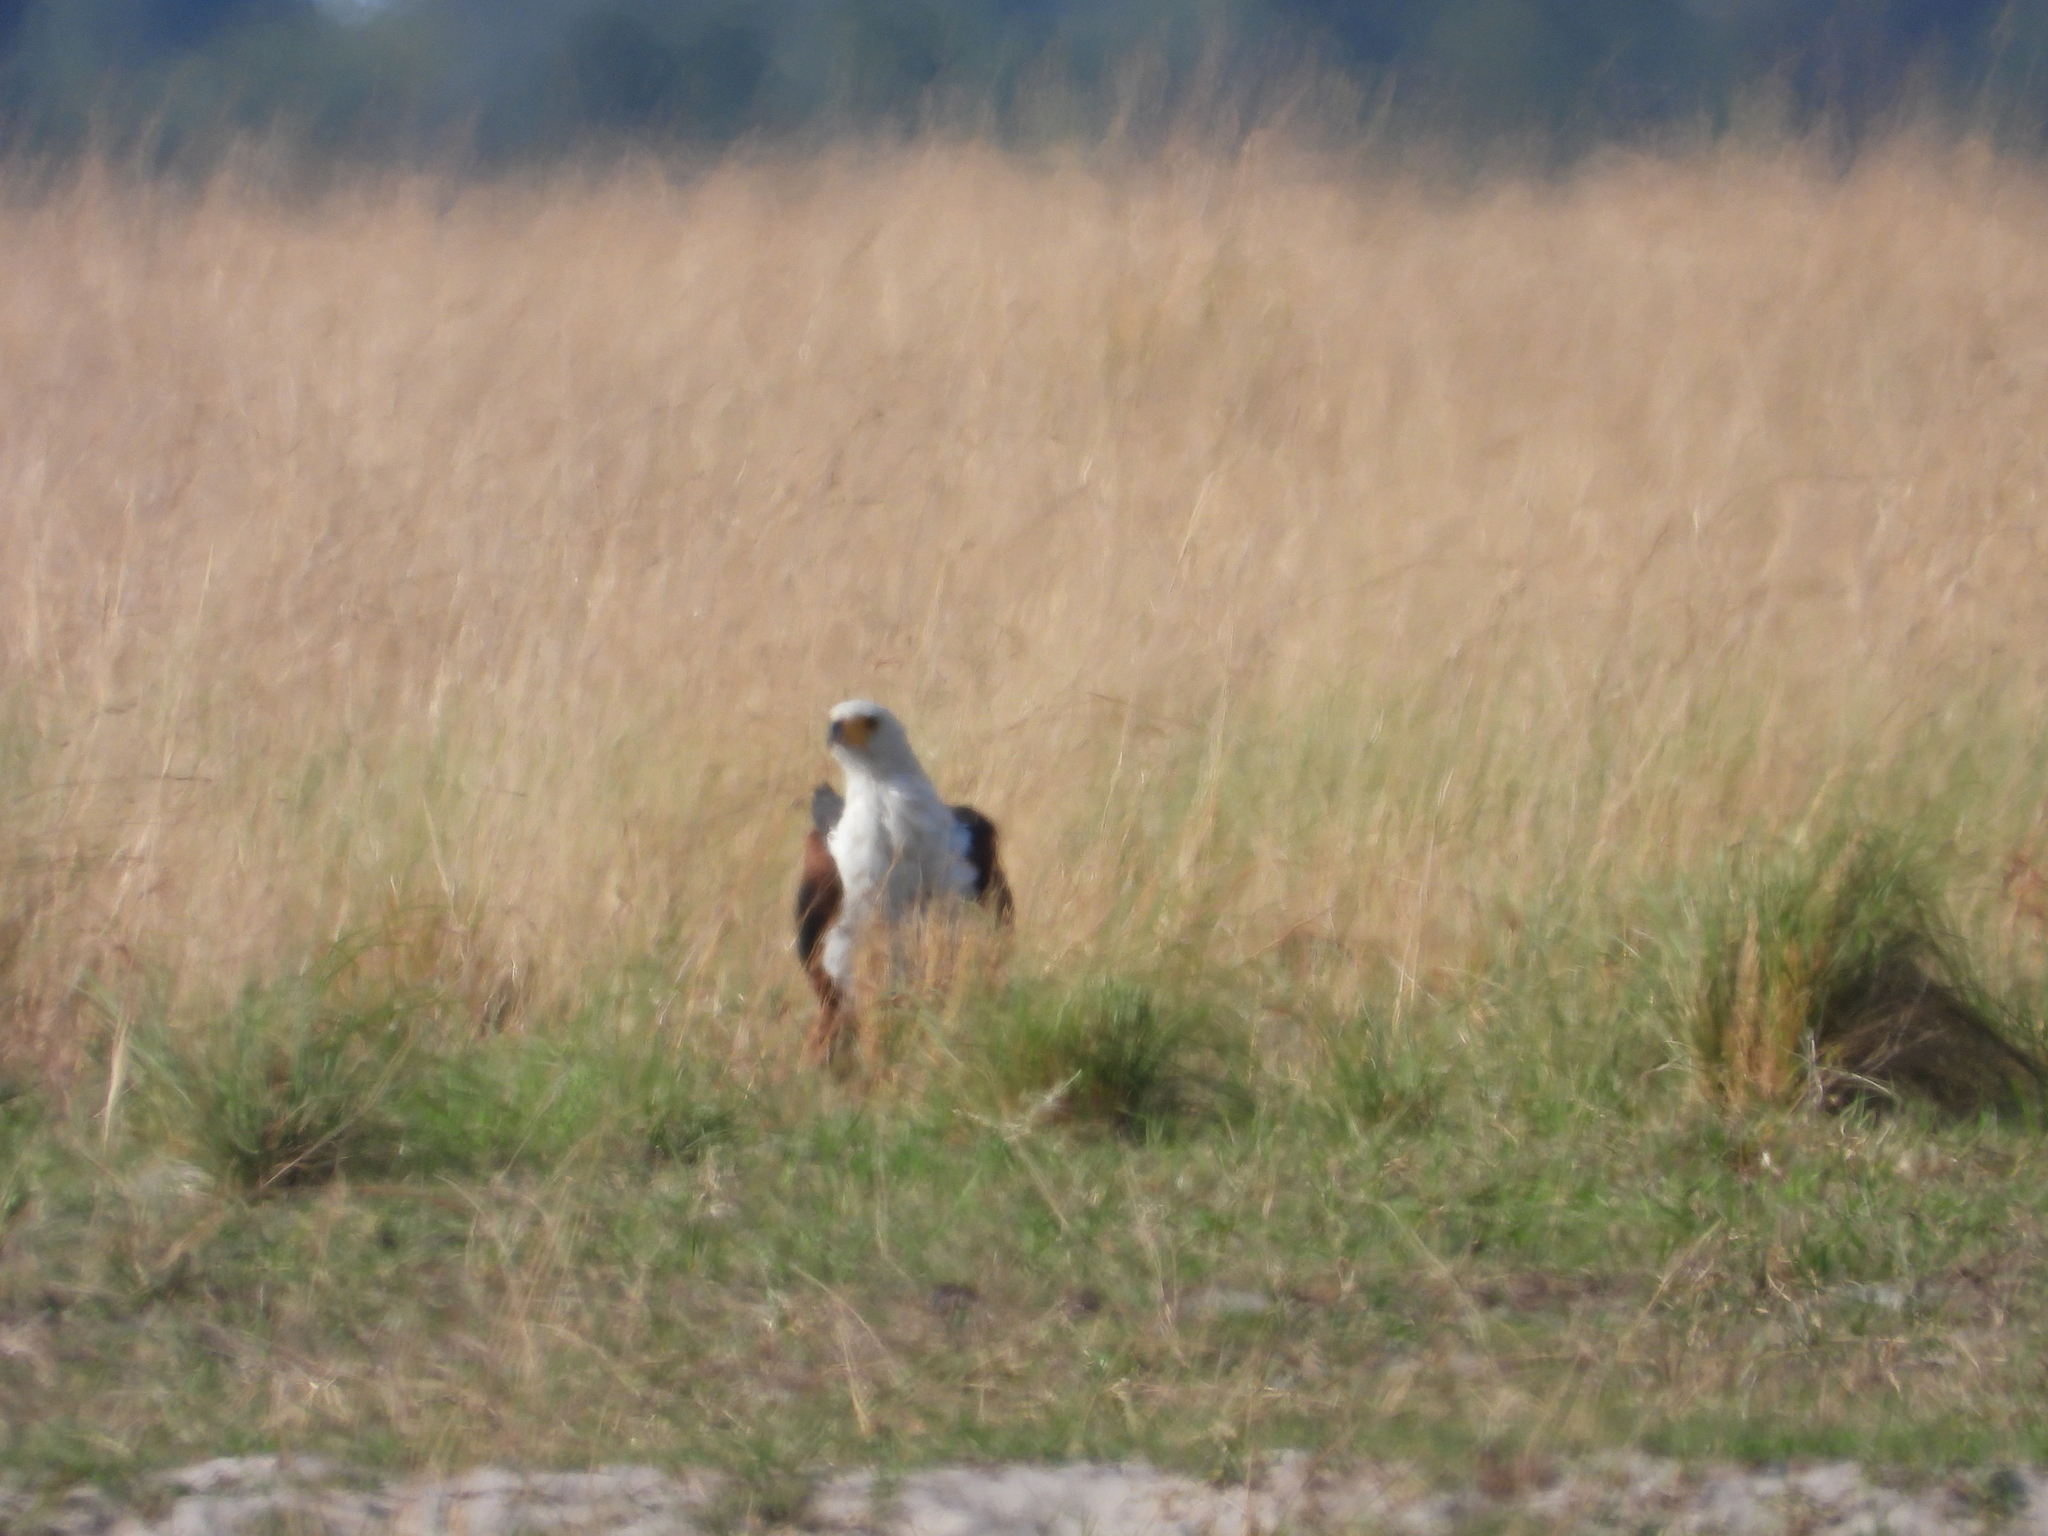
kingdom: Animalia
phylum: Chordata
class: Aves
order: Accipitriformes
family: Accipitridae
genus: Haliaeetus
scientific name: Haliaeetus vocifer
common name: African fish eagle
